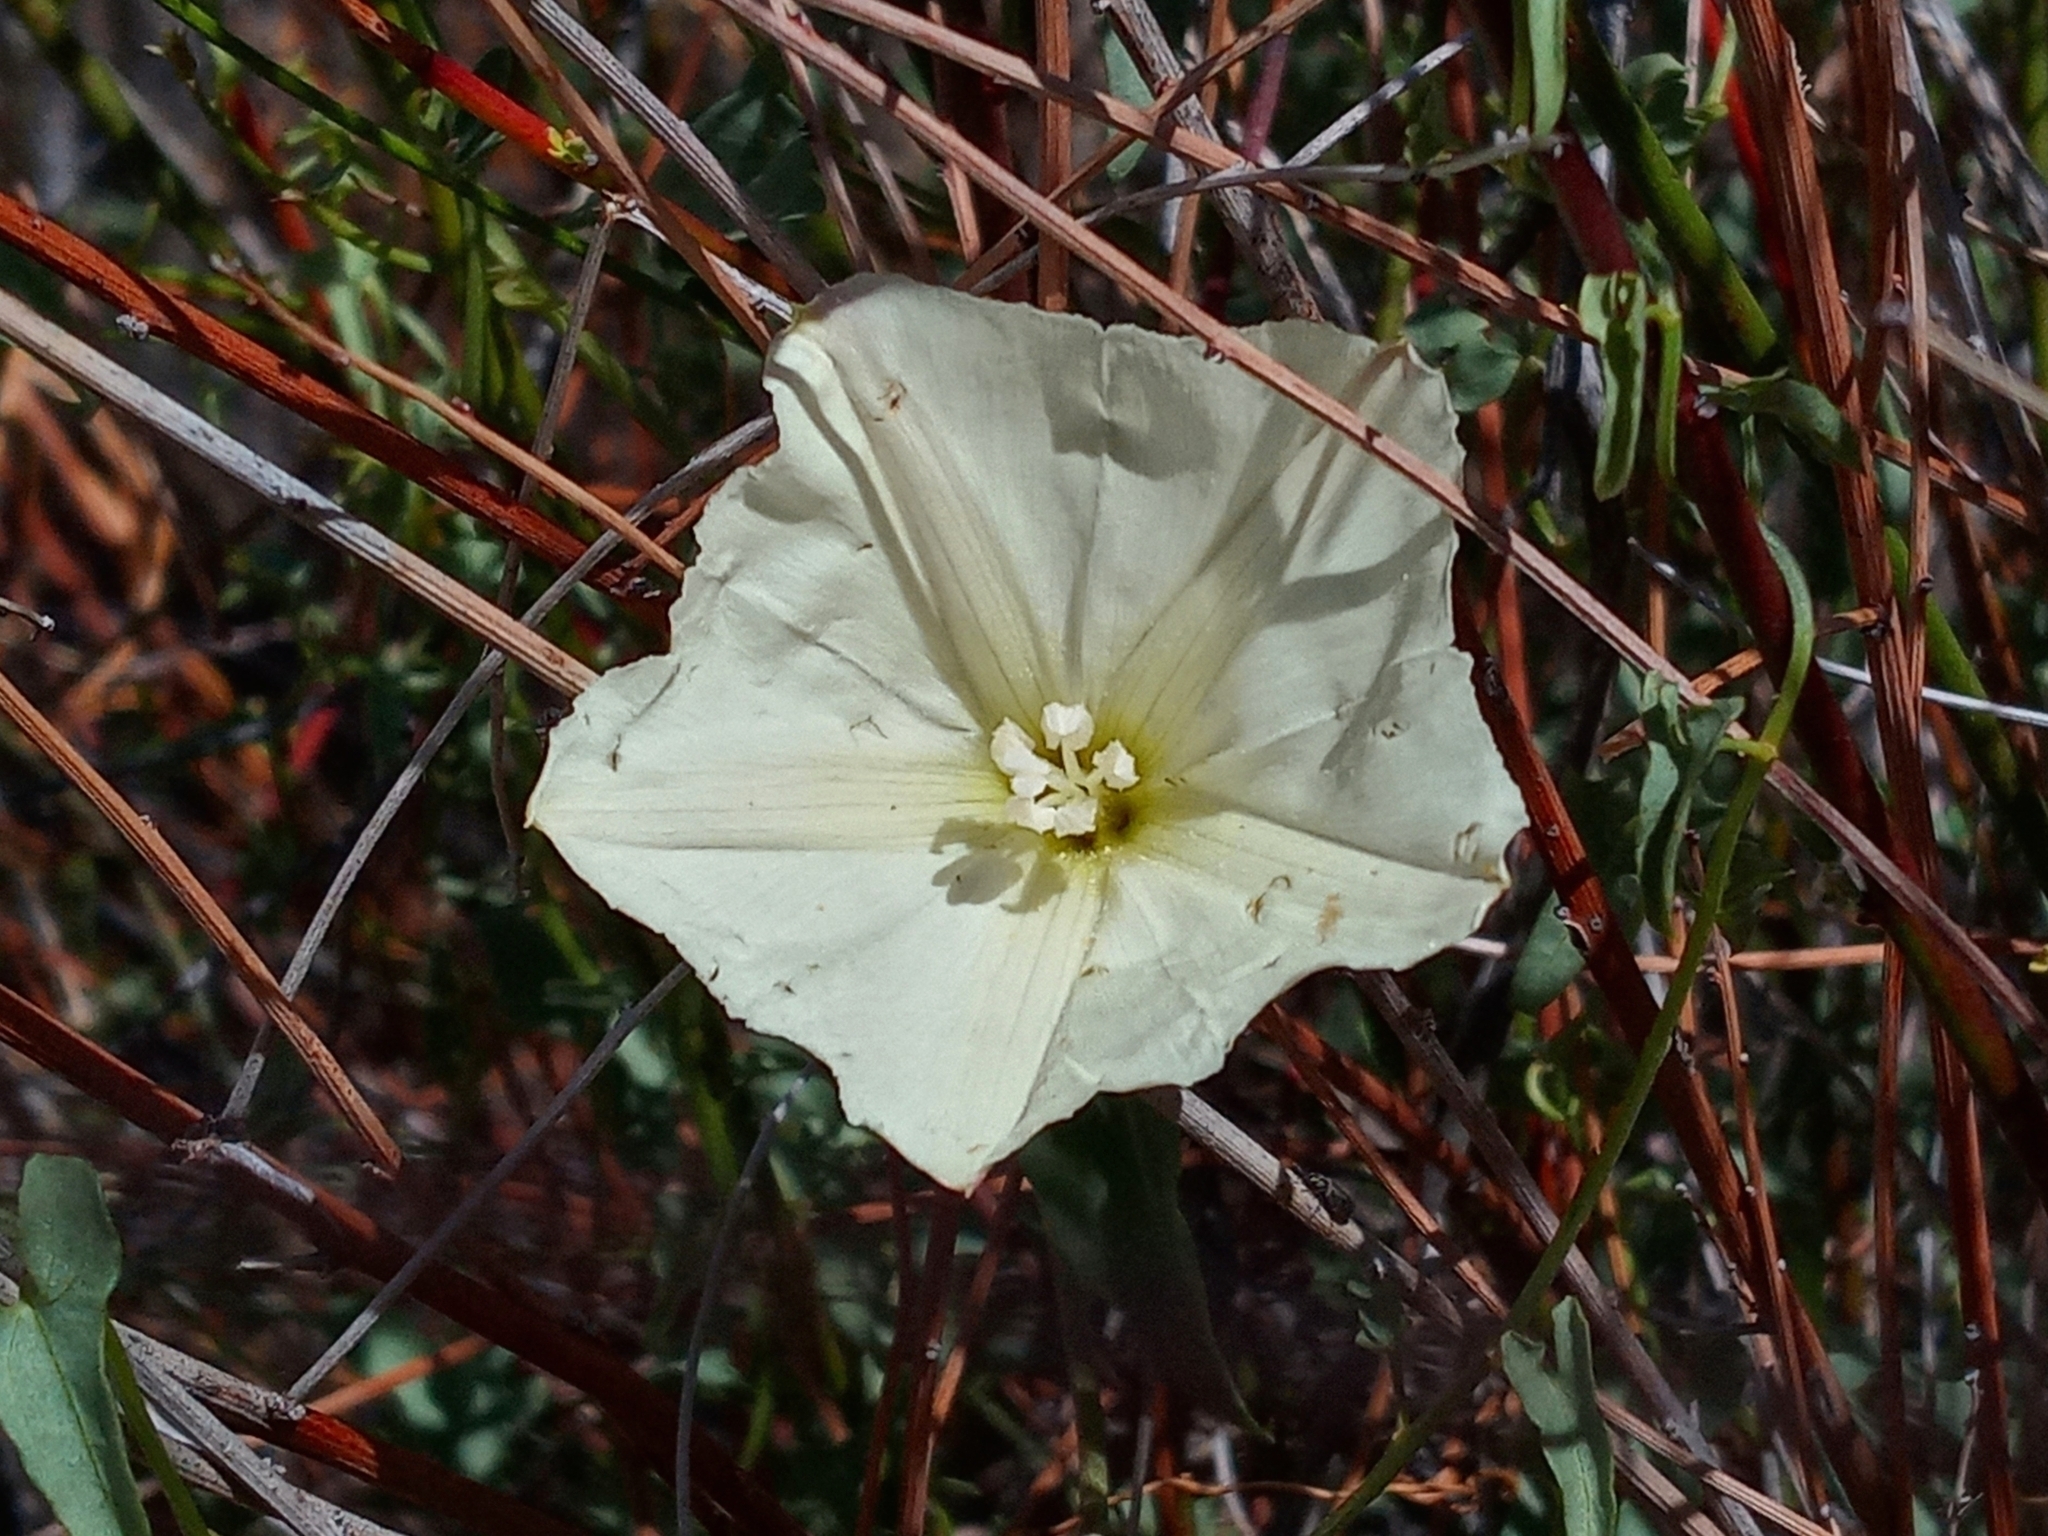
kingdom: Plantae
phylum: Tracheophyta
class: Magnoliopsida
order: Solanales
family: Convolvulaceae
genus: Calystegia
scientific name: Calystegia peirsonii
